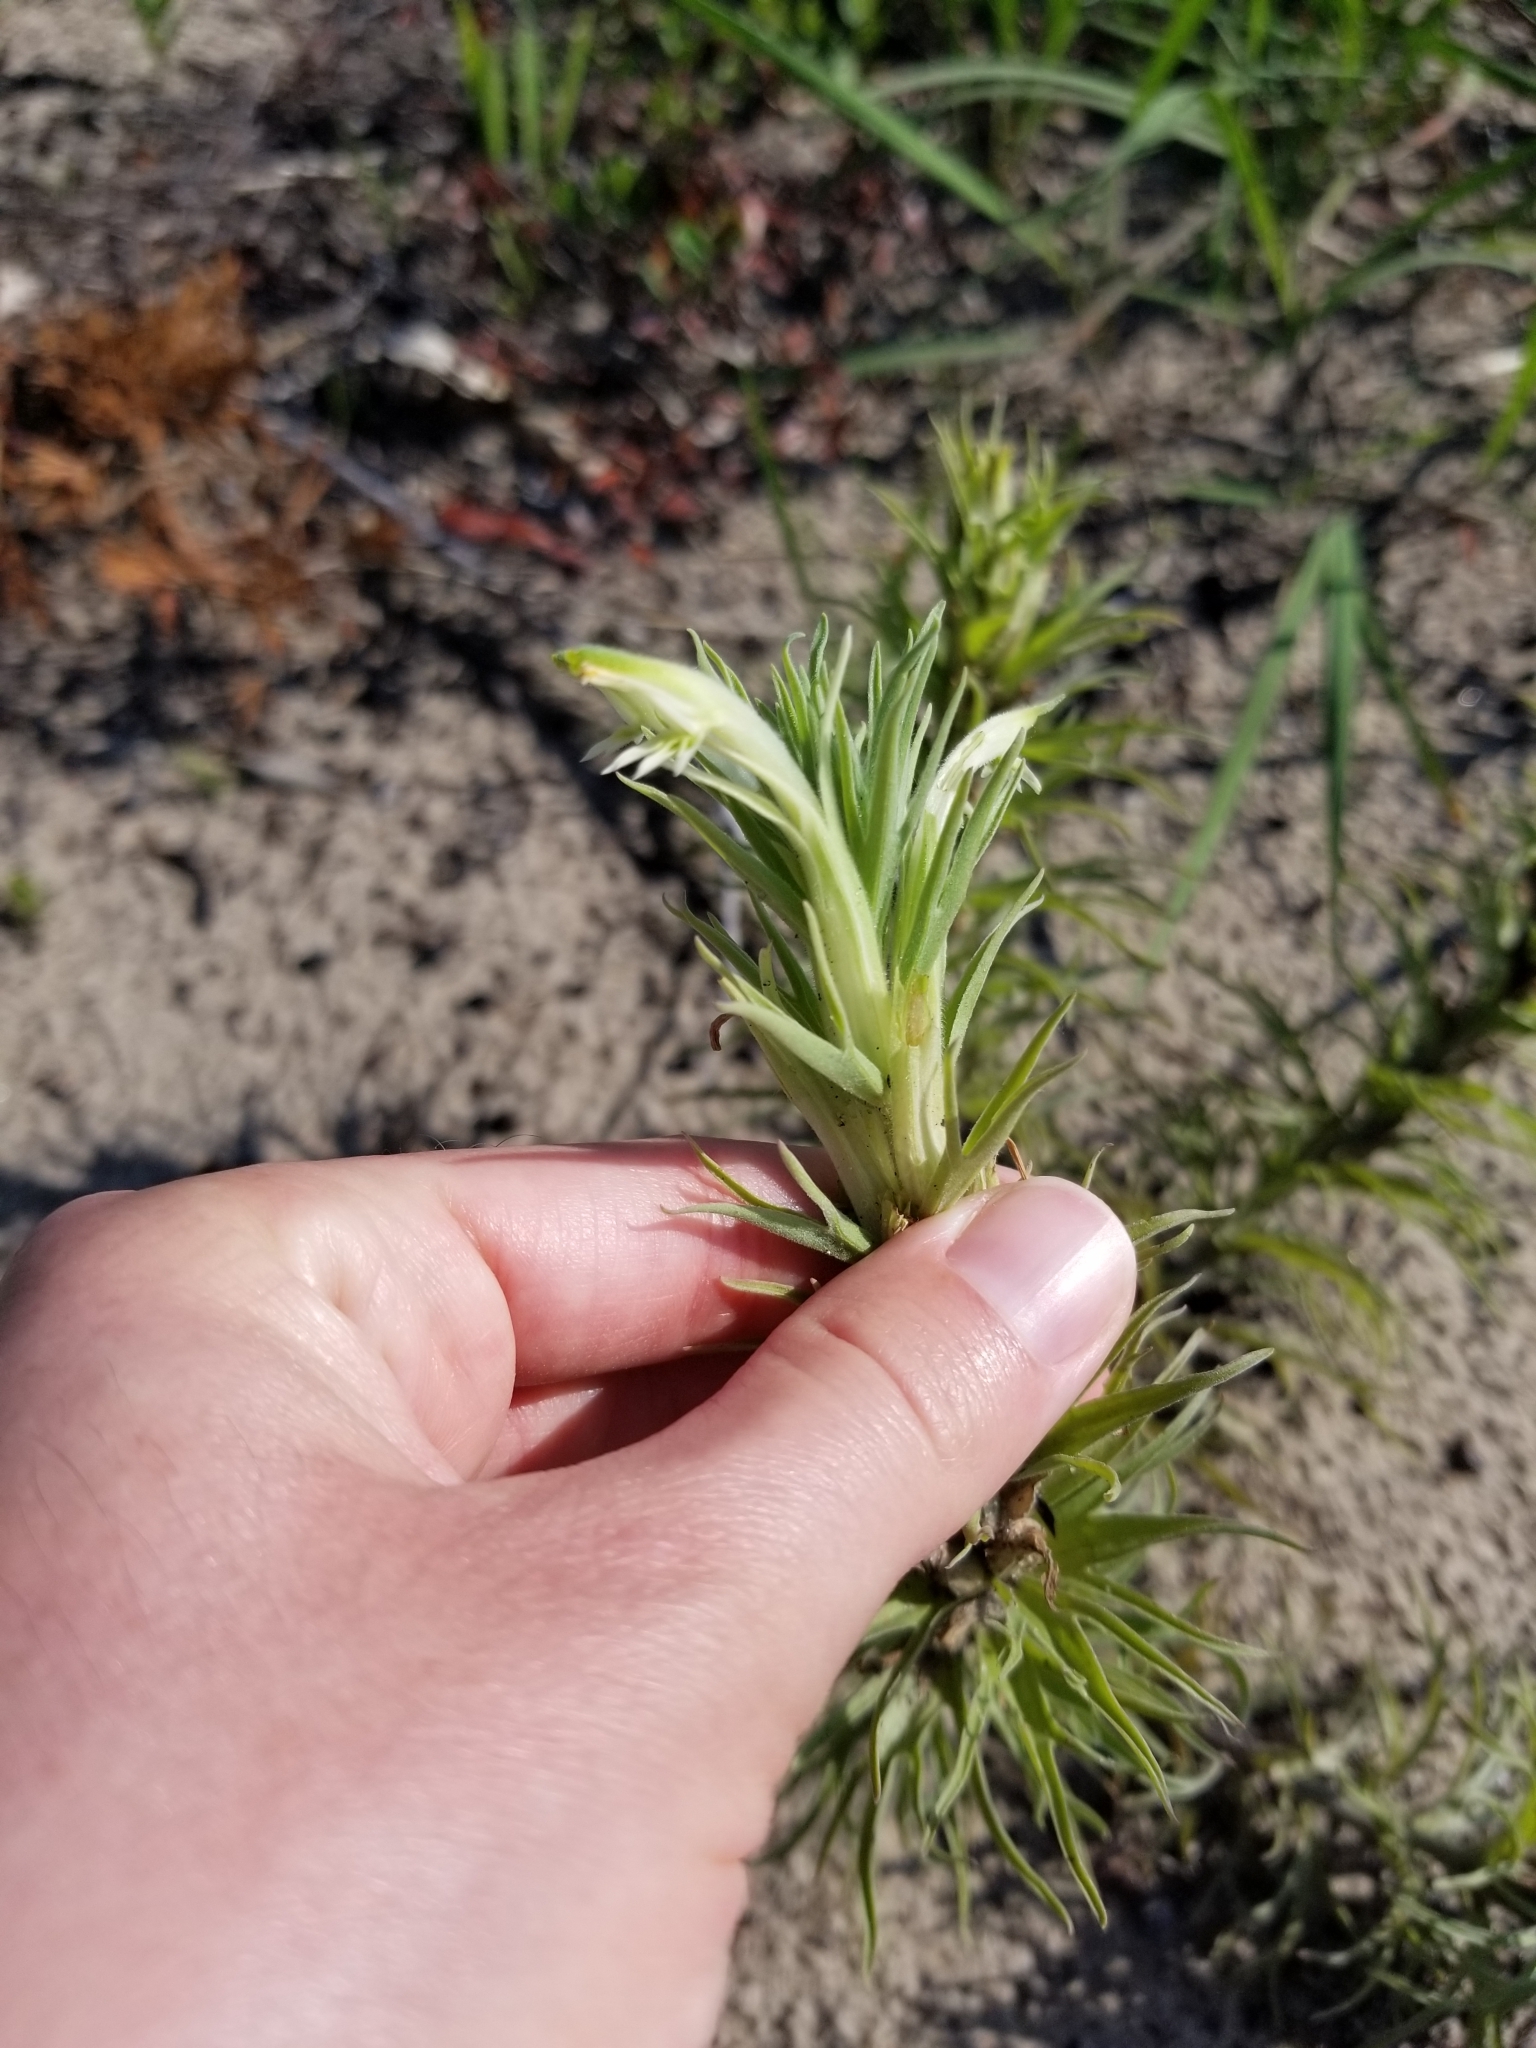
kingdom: Plantae
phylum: Tracheophyta
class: Magnoliopsida
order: Lamiales
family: Orobanchaceae
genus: Castilleja
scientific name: Castilleja sessiliflora
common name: Downy paintbrush
